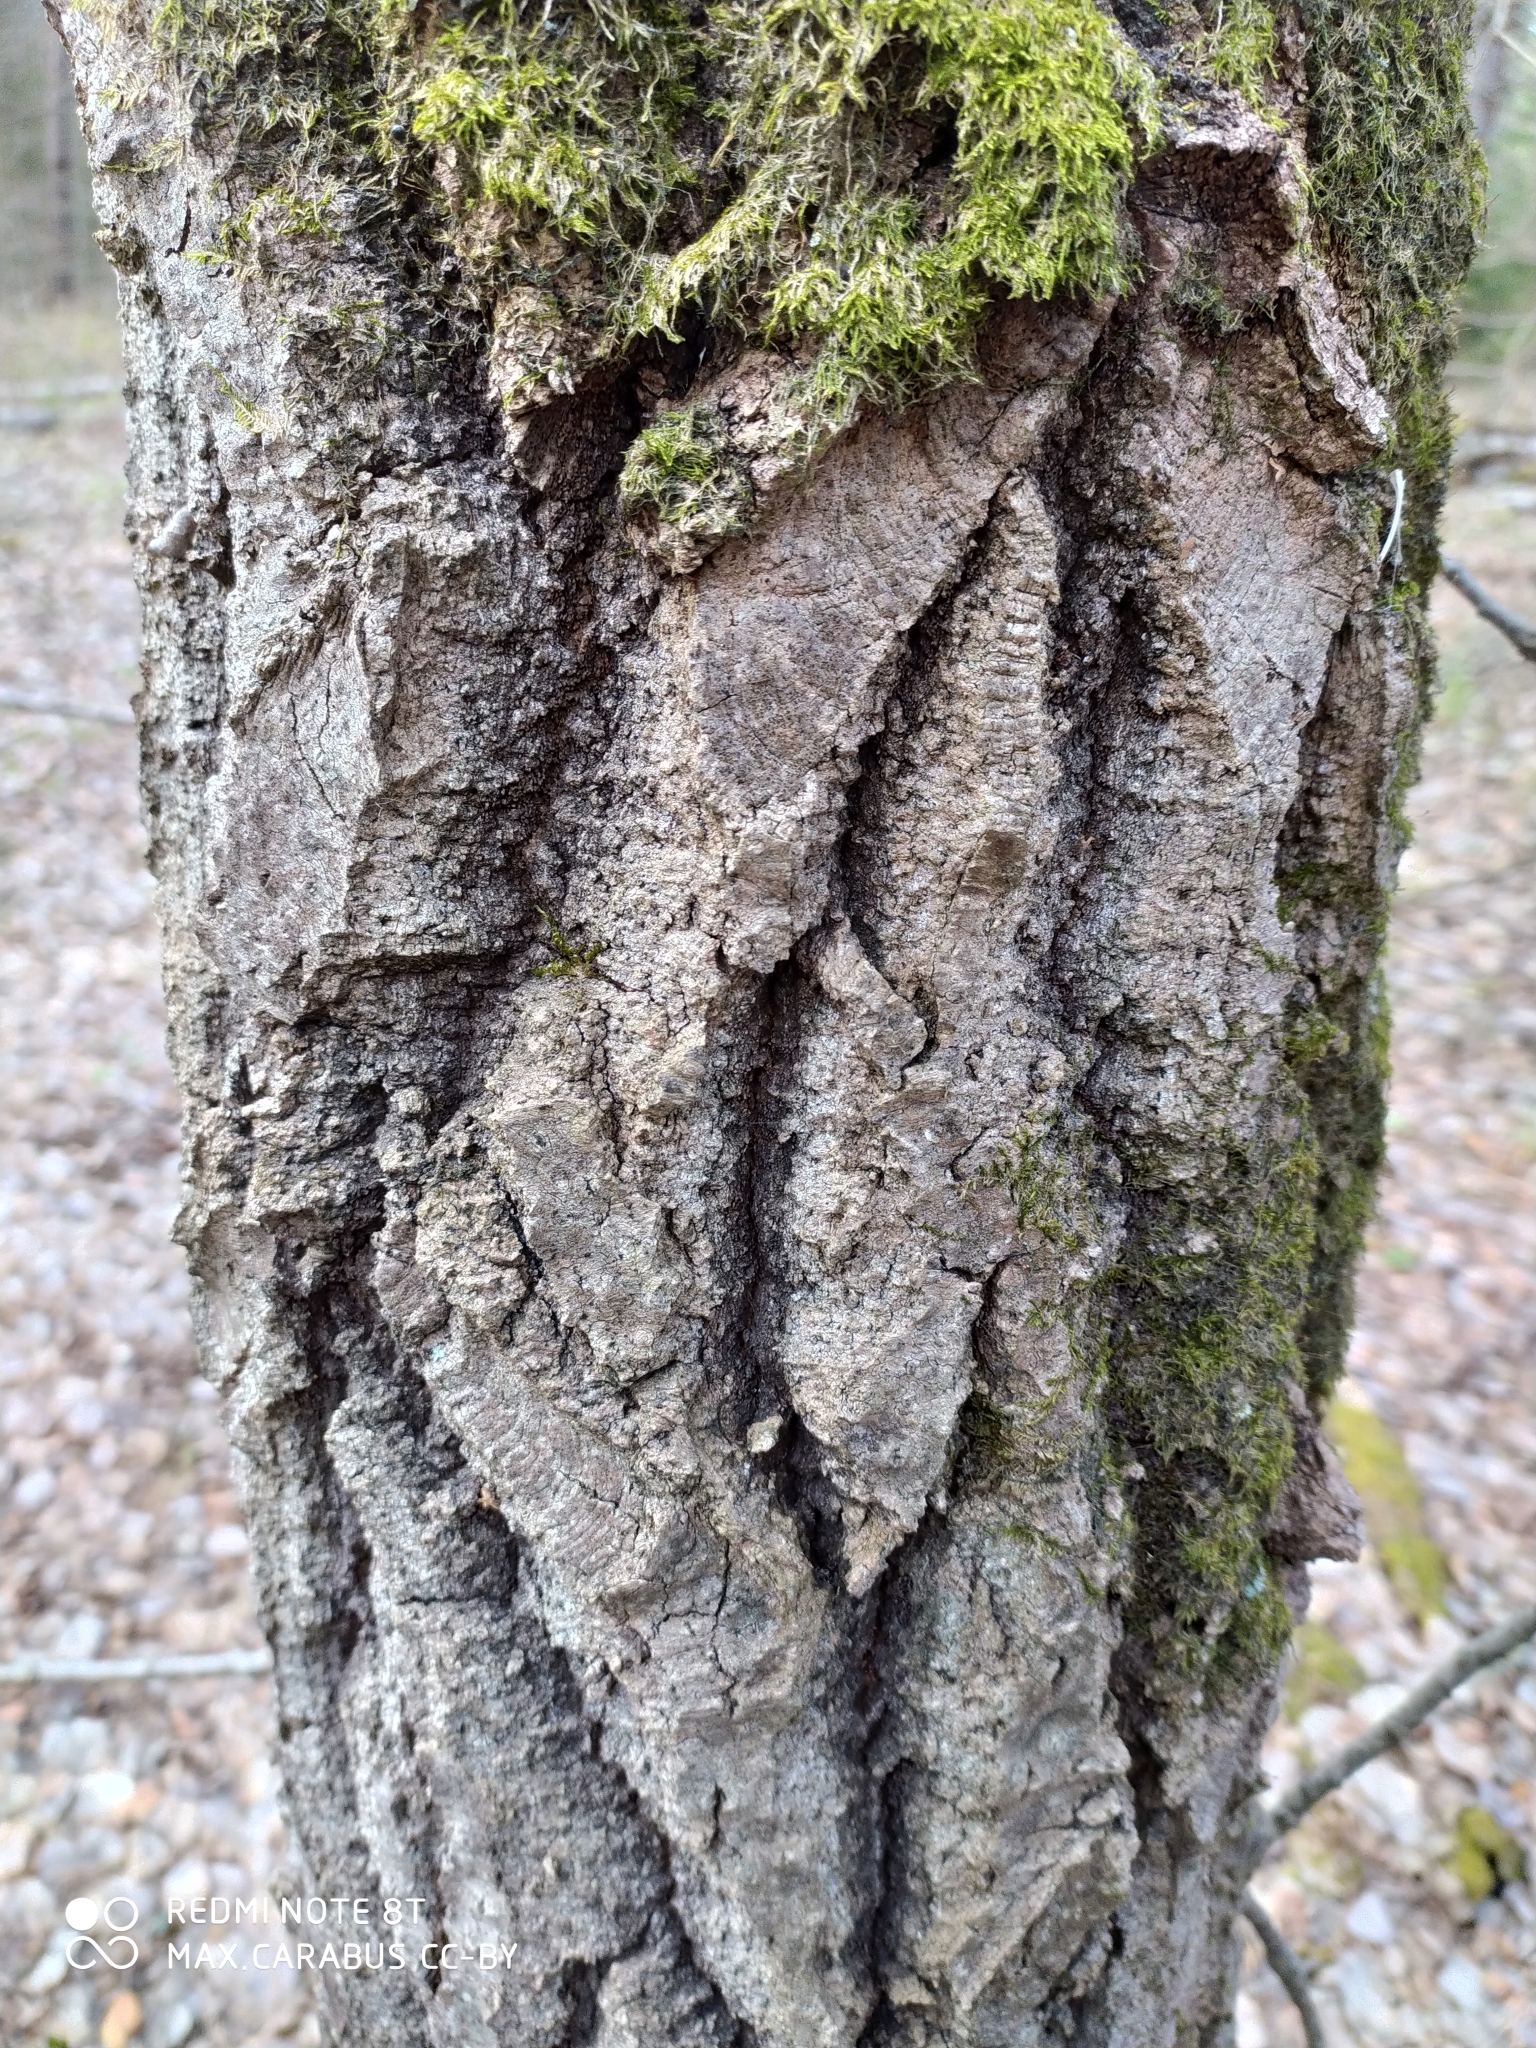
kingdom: Plantae
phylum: Tracheophyta
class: Magnoliopsida
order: Malpighiales
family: Salicaceae
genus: Populus
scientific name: Populus tremula
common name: European aspen
